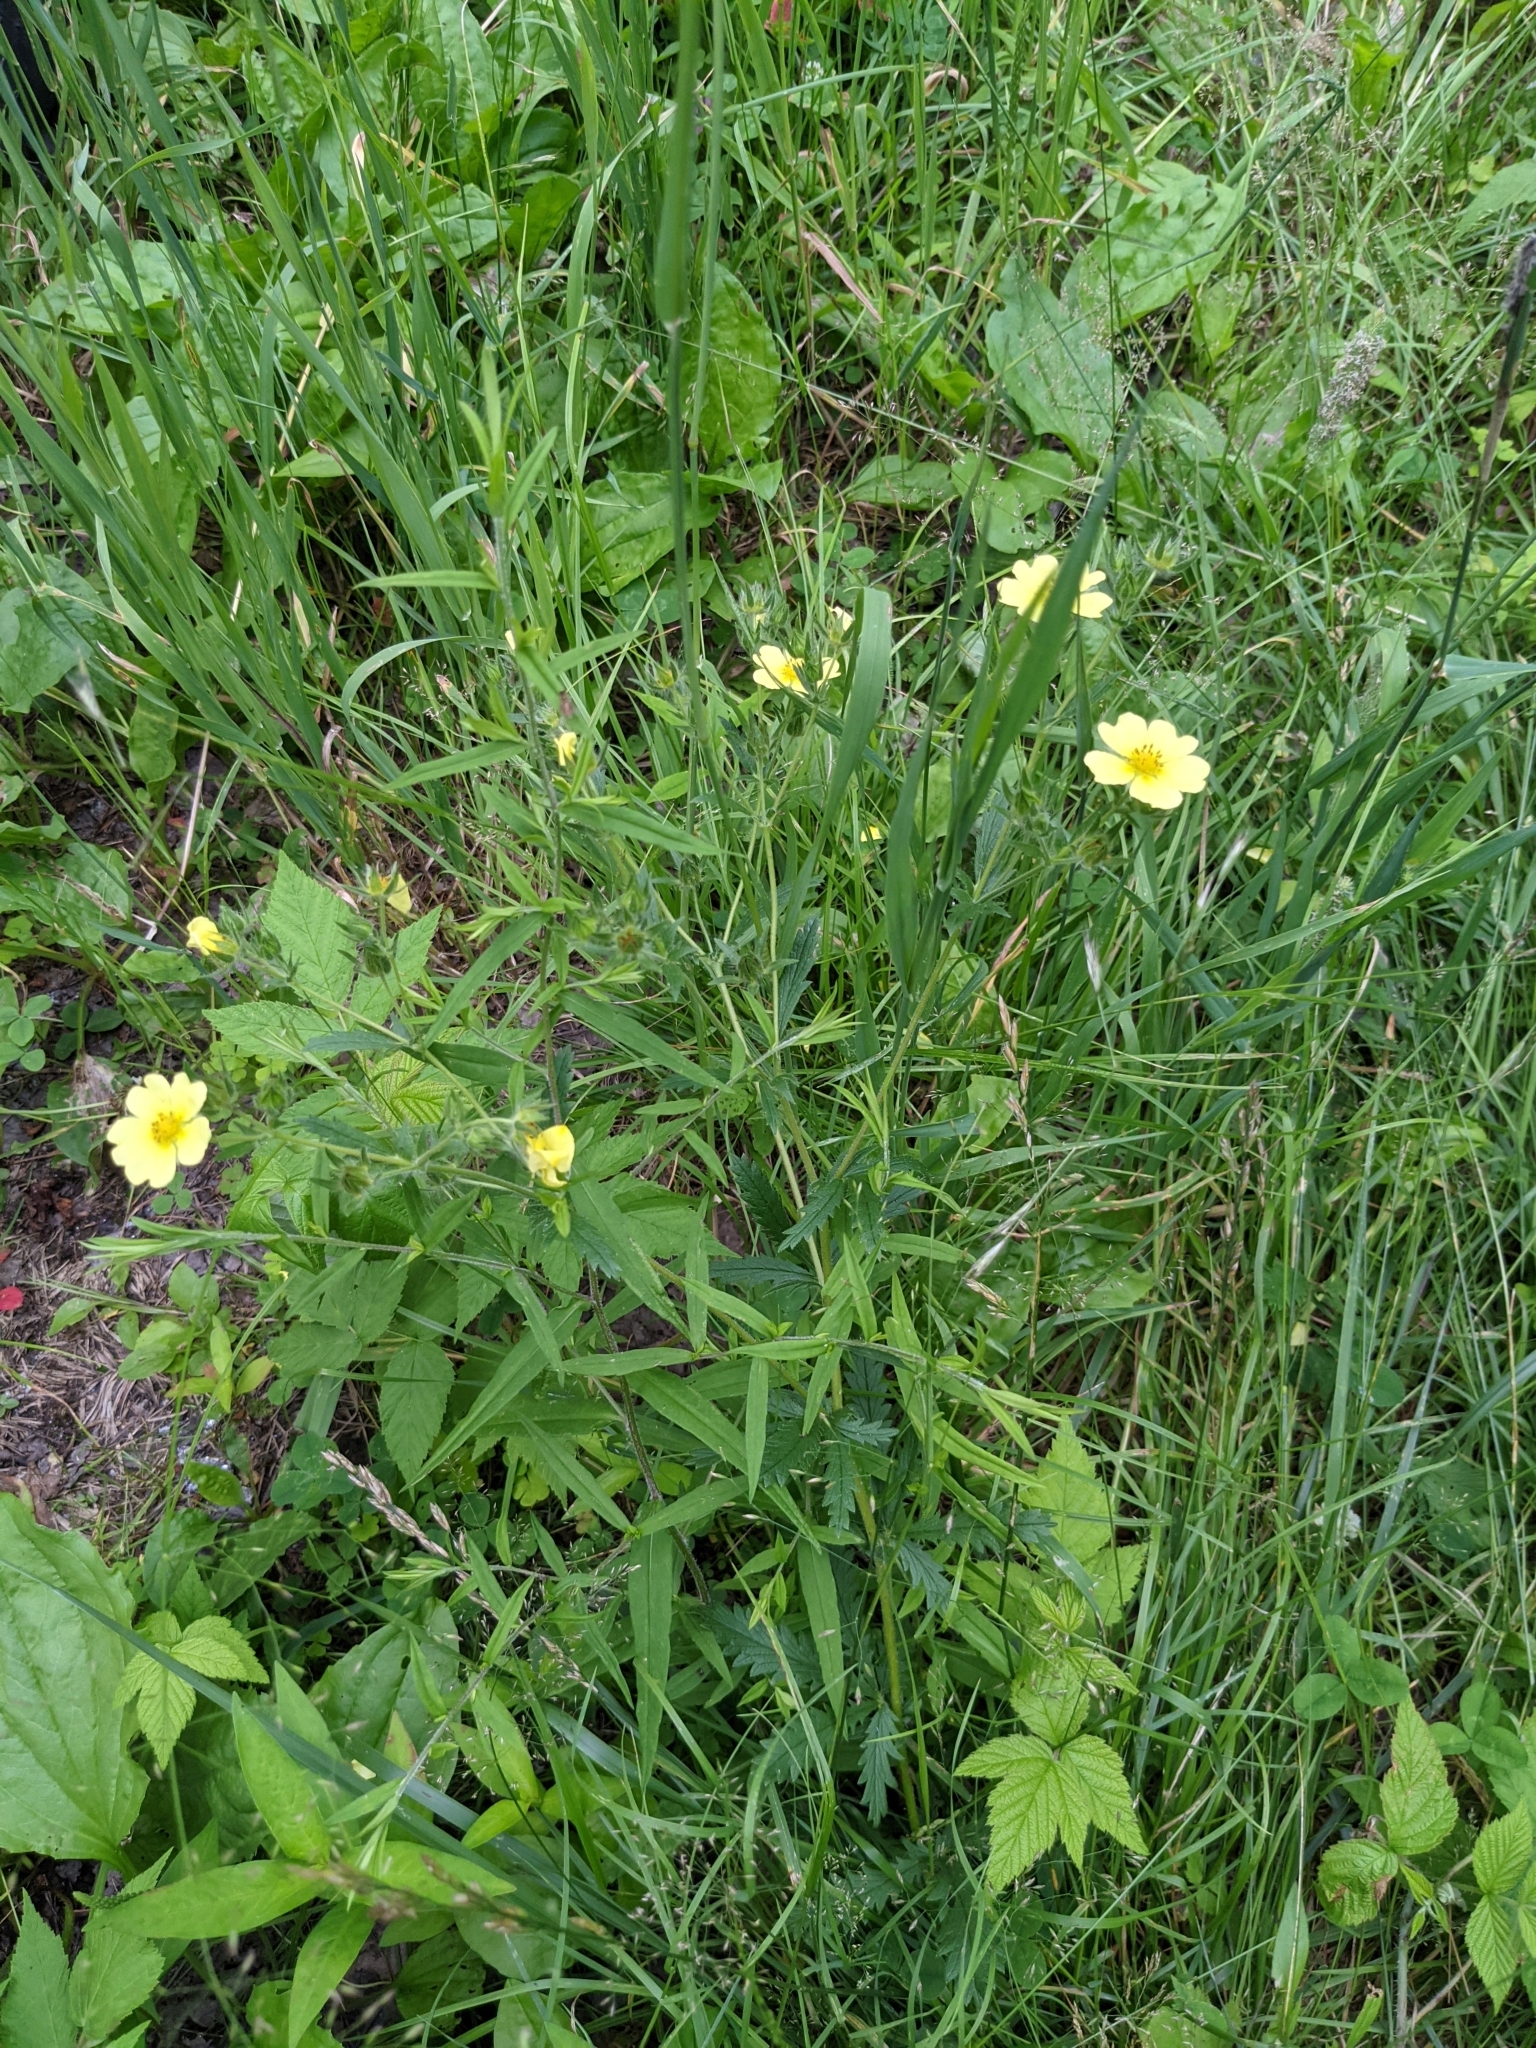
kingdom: Plantae
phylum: Tracheophyta
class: Magnoliopsida
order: Rosales
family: Rosaceae
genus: Potentilla
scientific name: Potentilla recta
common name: Sulphur cinquefoil
